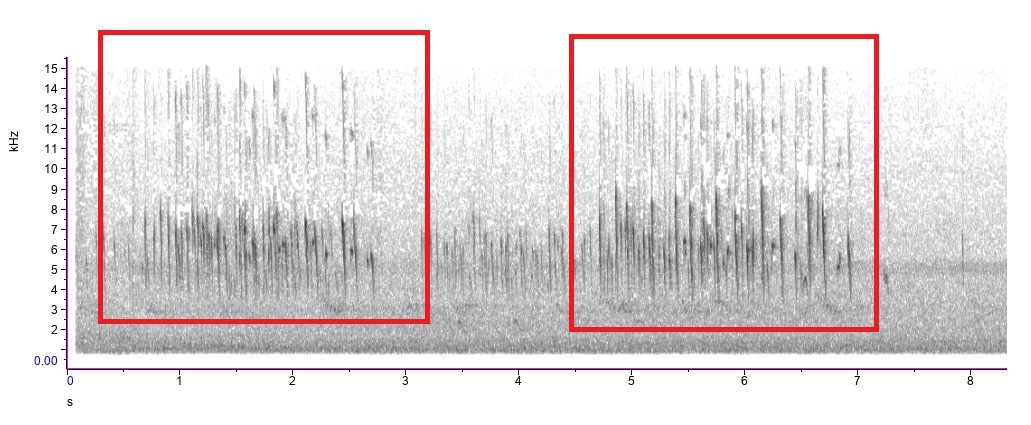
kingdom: Animalia
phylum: Chordata
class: Aves
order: Apodiformes
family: Apodidae
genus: Chaetura
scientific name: Chaetura pelagica
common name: Chimney swift
